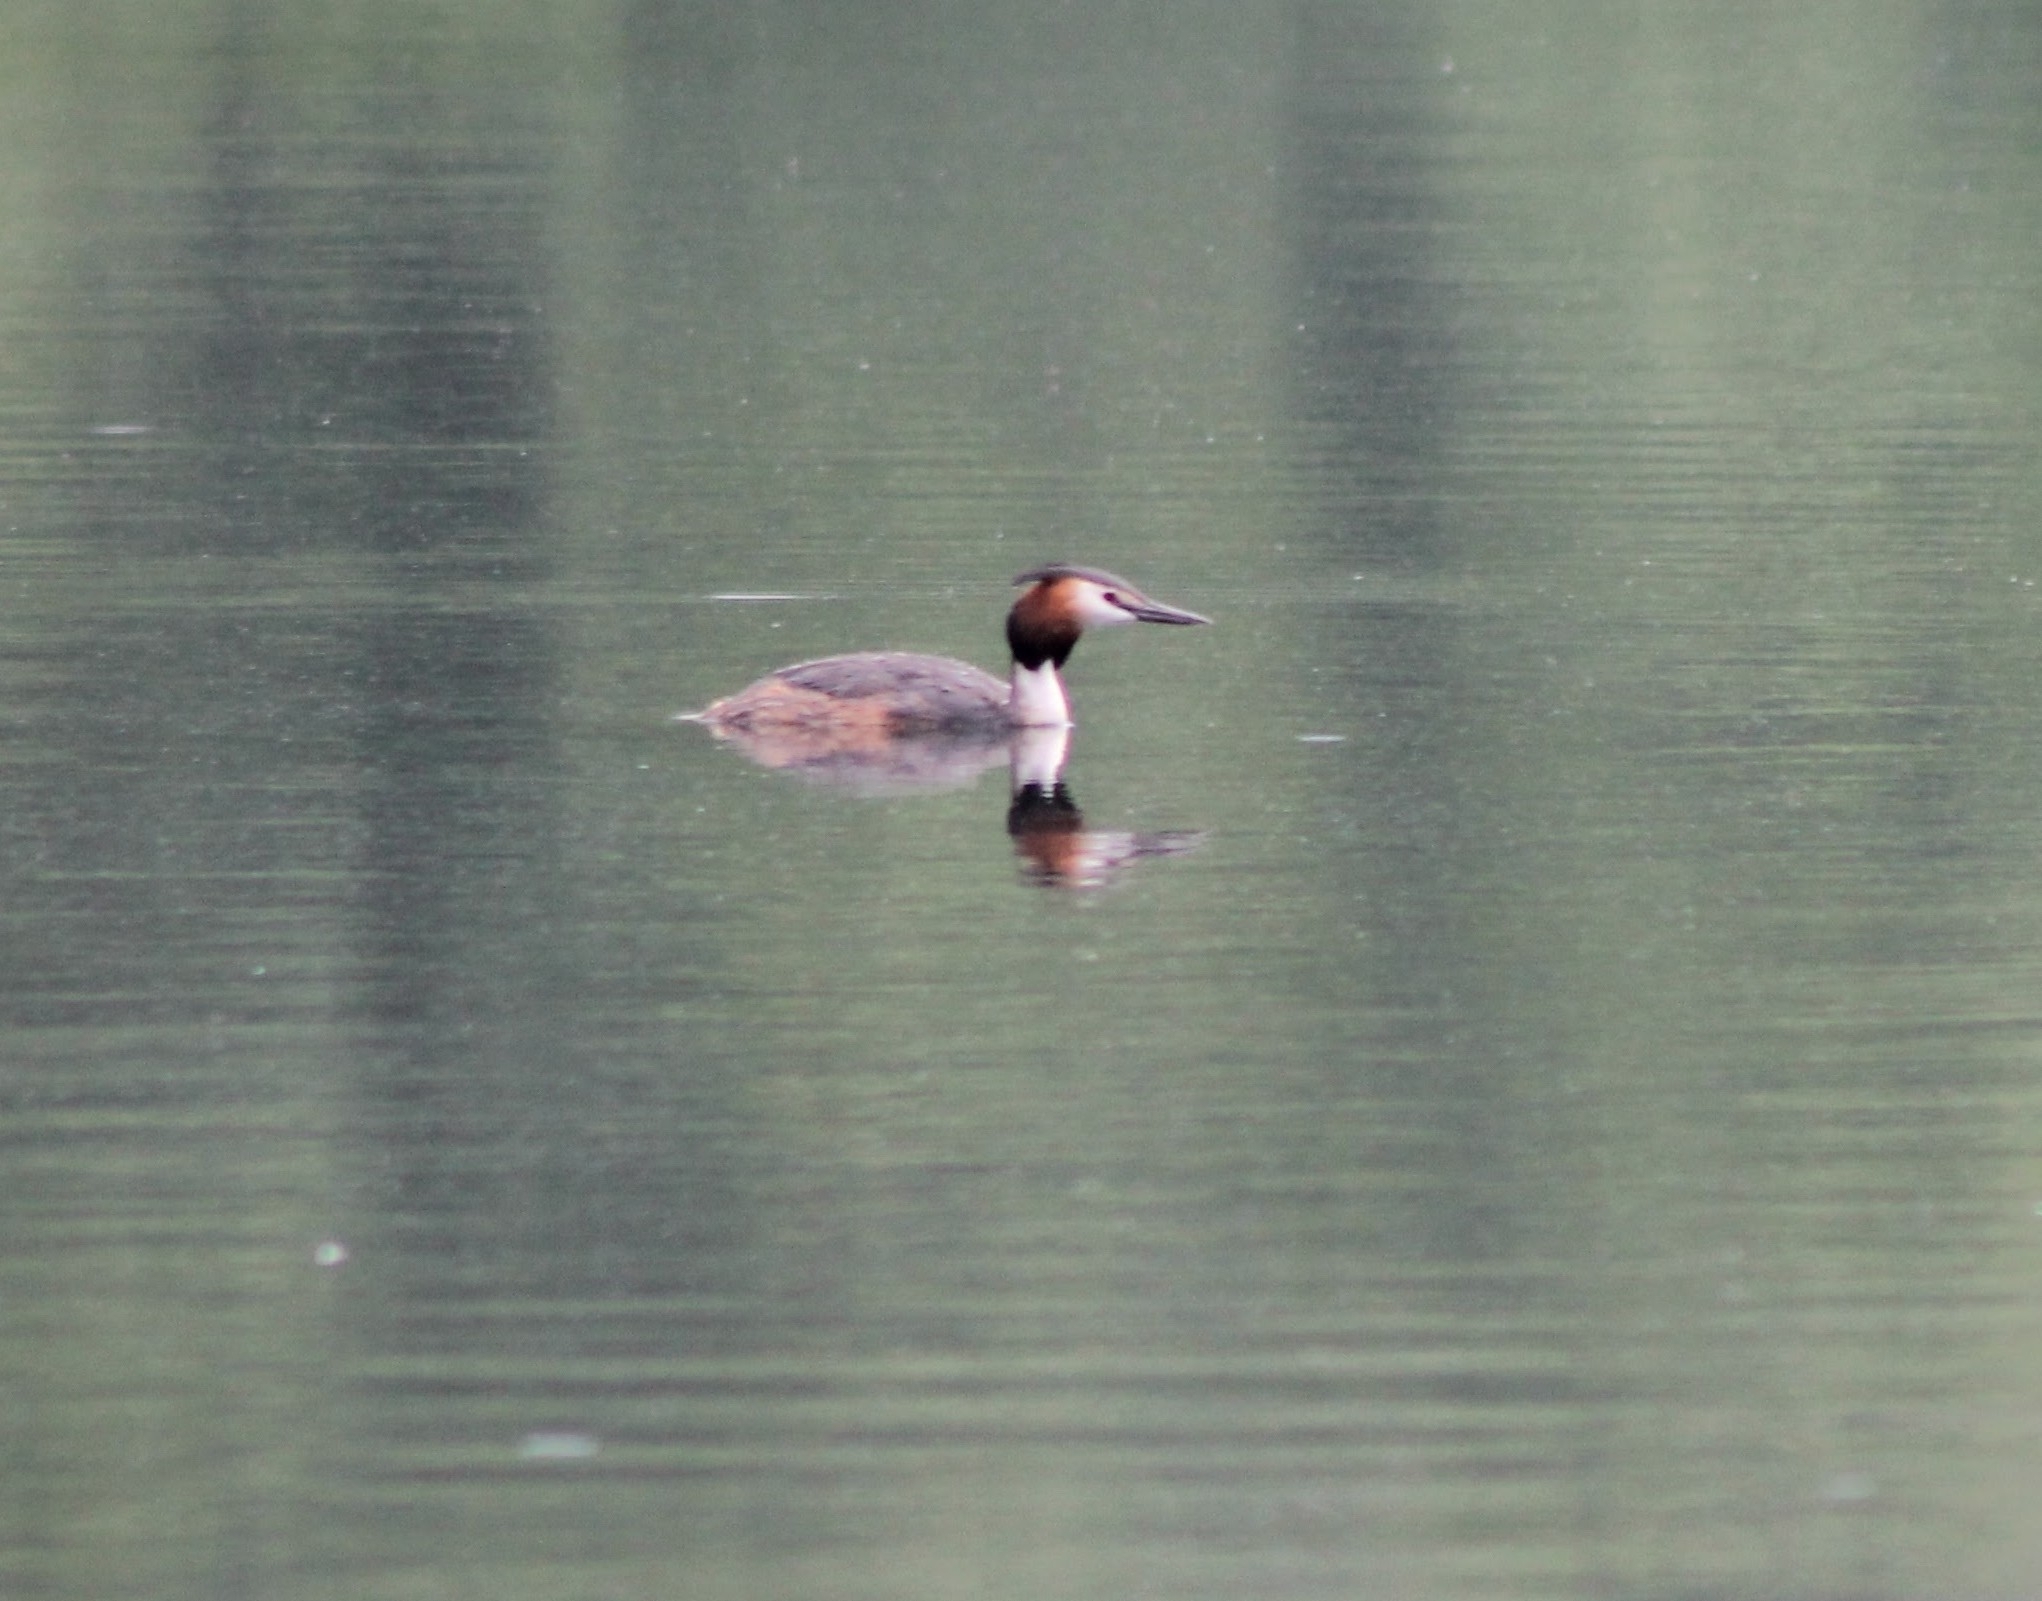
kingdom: Animalia
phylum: Chordata
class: Aves
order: Podicipediformes
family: Podicipedidae
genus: Podiceps
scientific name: Podiceps cristatus
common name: Great crested grebe
